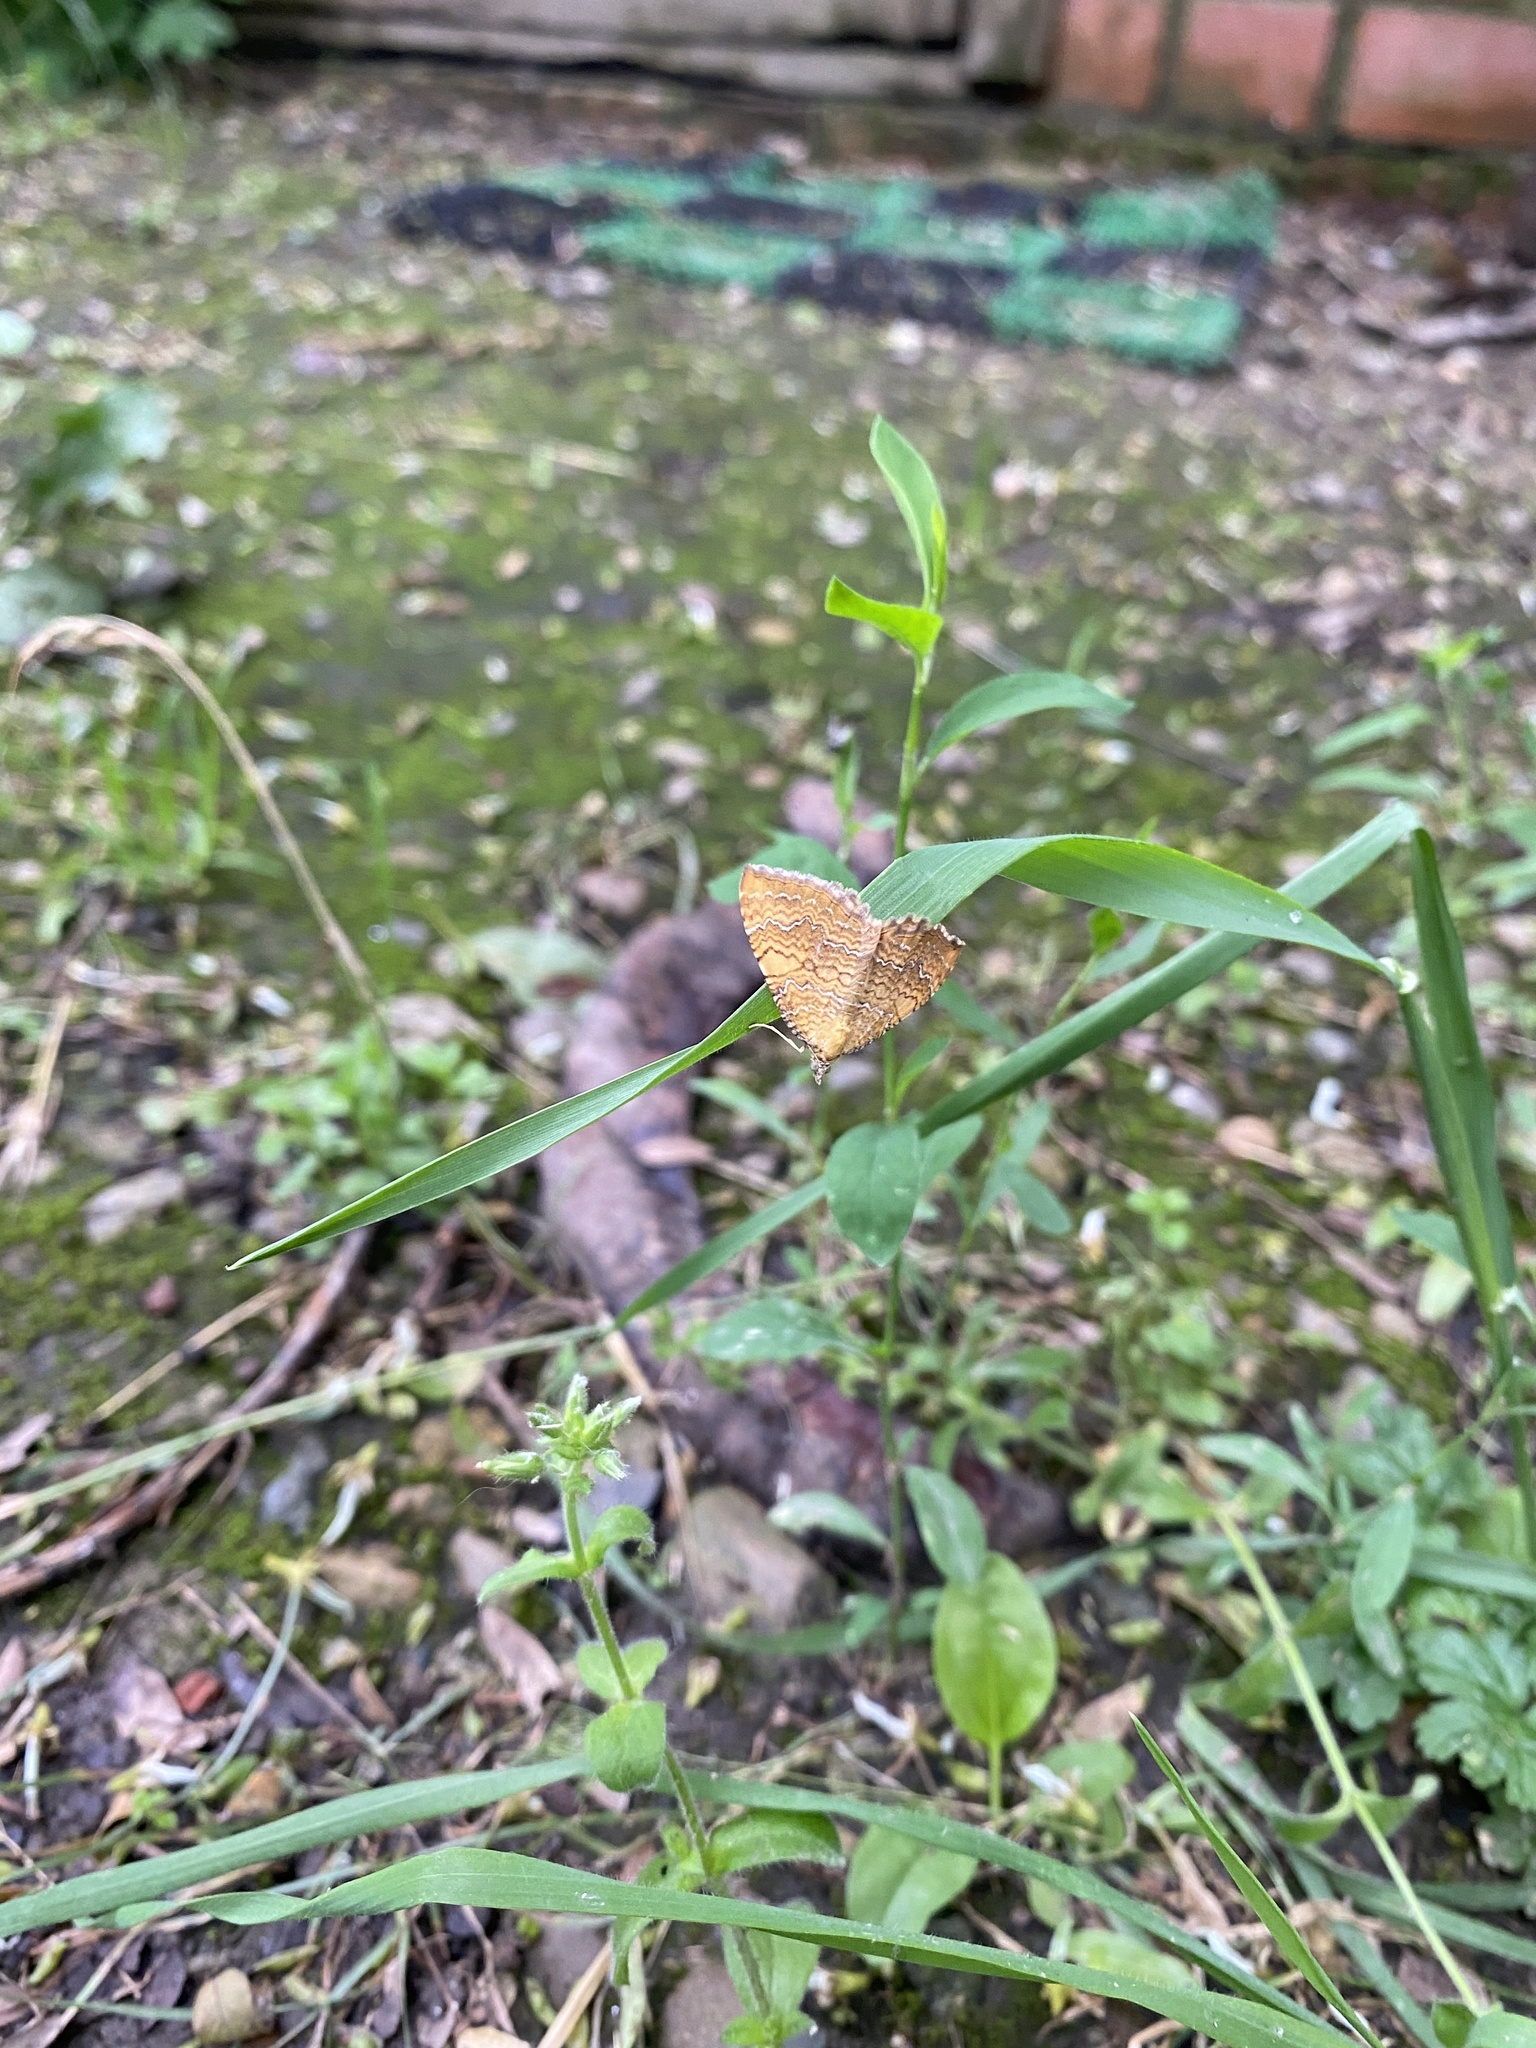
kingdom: Animalia
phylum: Arthropoda
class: Insecta
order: Lepidoptera
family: Geometridae
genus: Camptogramma
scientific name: Camptogramma bilineata
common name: Yellow shell
